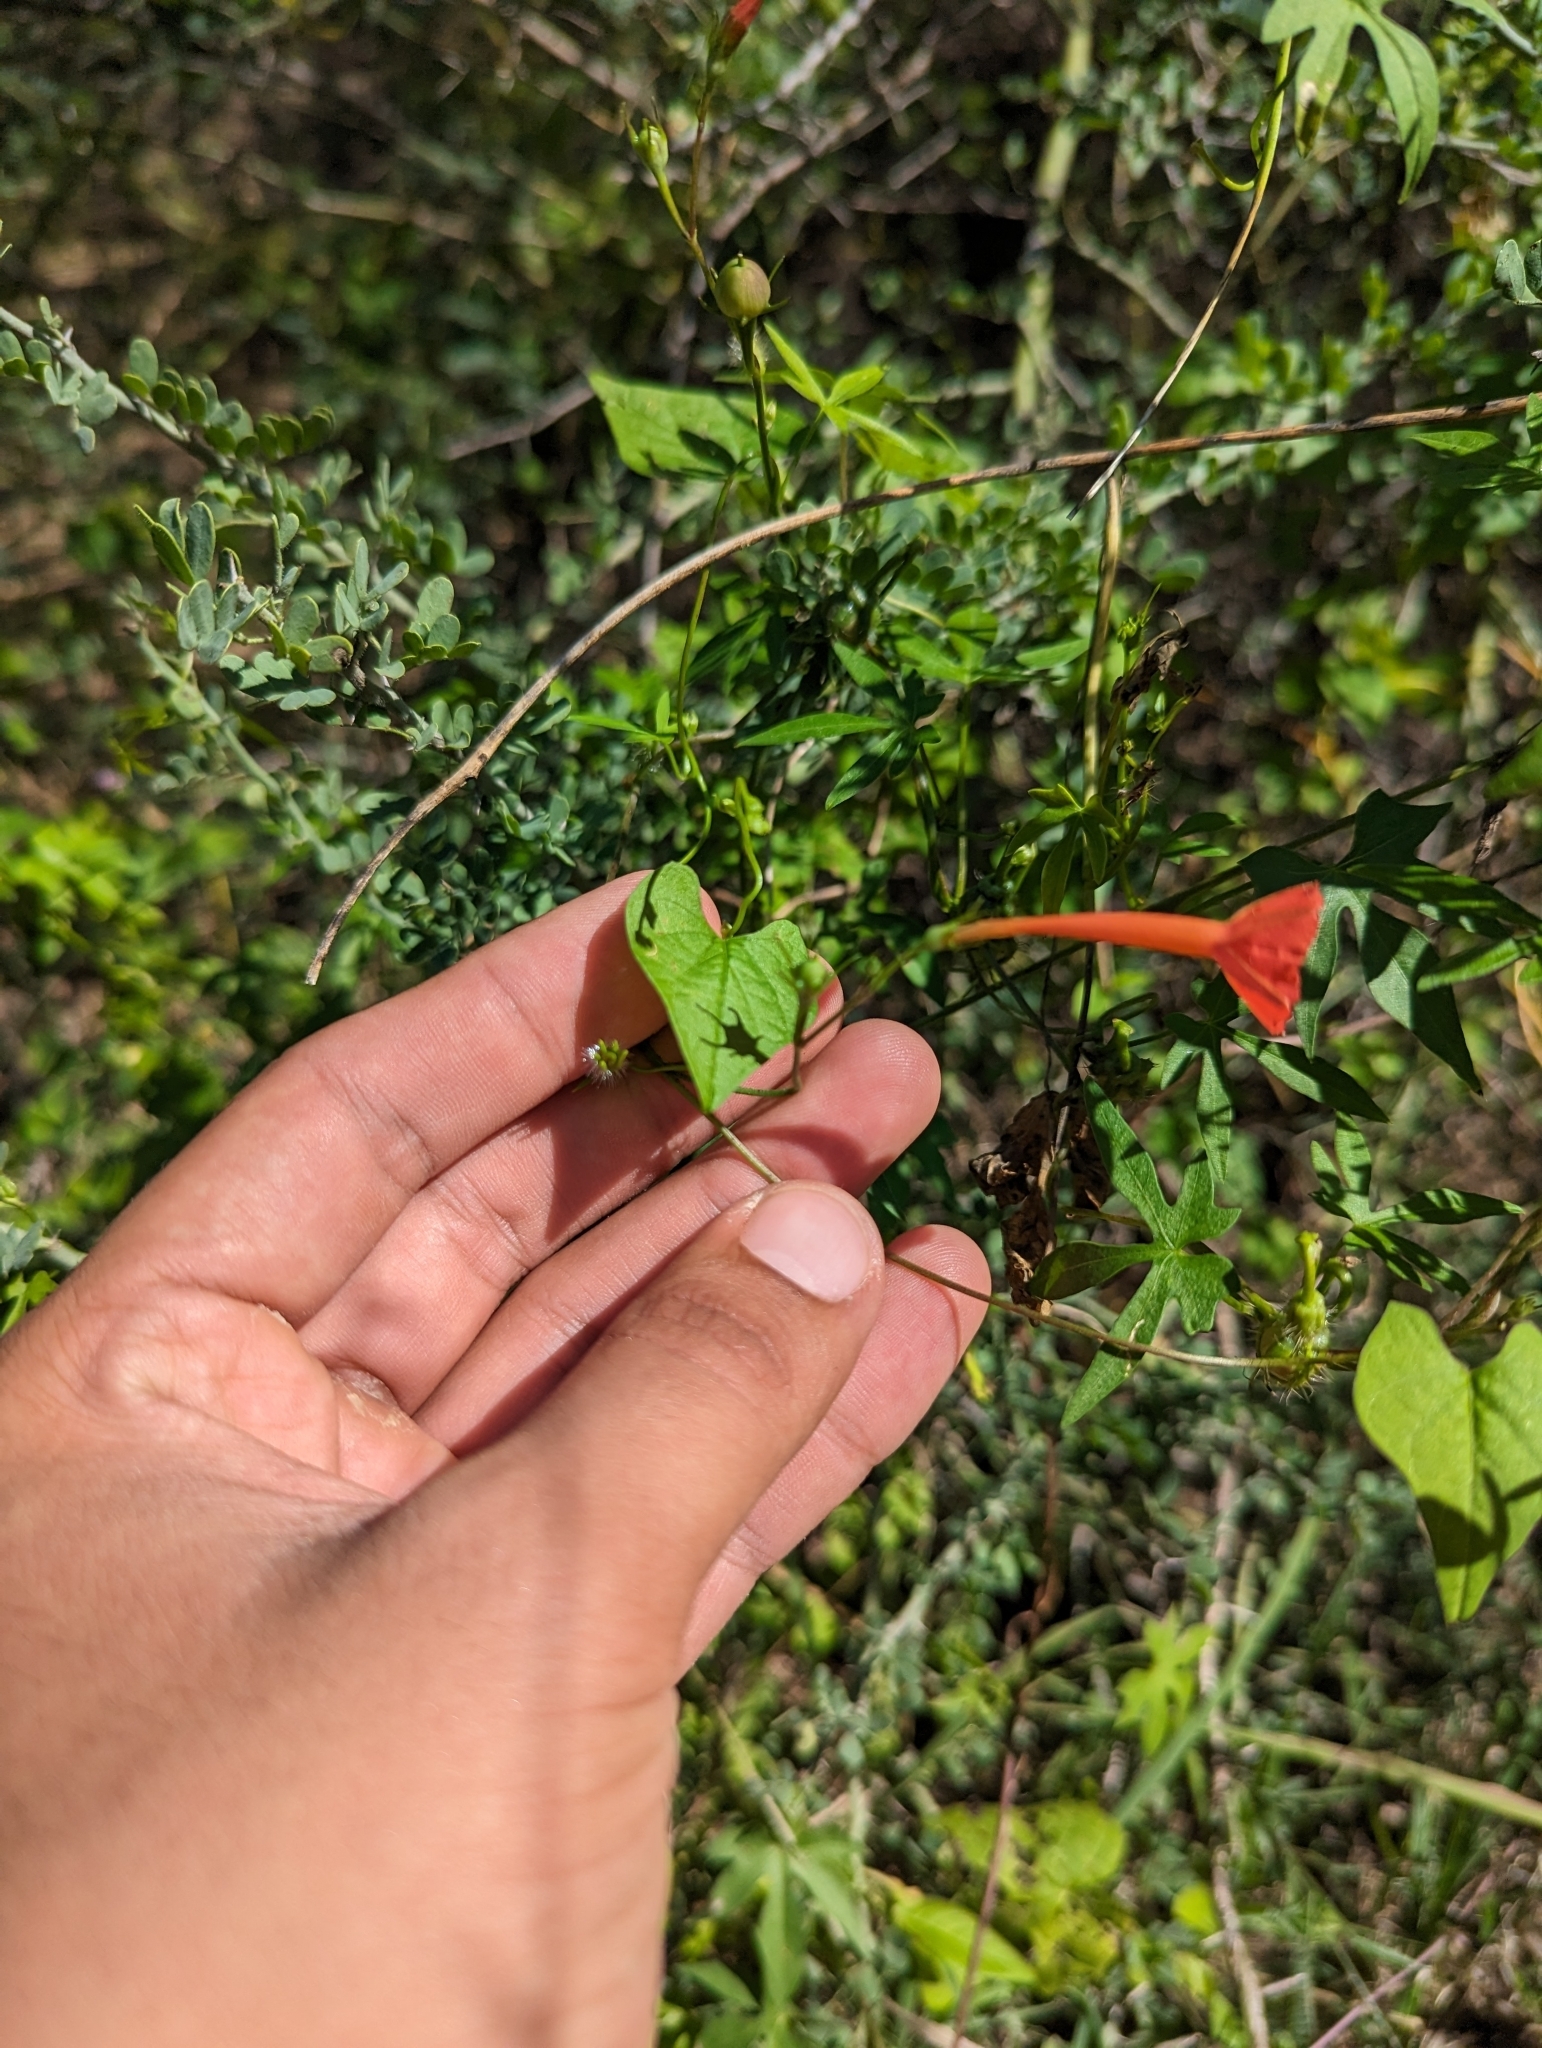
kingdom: Plantae
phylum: Tracheophyta
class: Magnoliopsida
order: Solanales
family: Convolvulaceae
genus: Ipomoea
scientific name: Ipomoea cristulata
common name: Trans-pecos morning-glory
